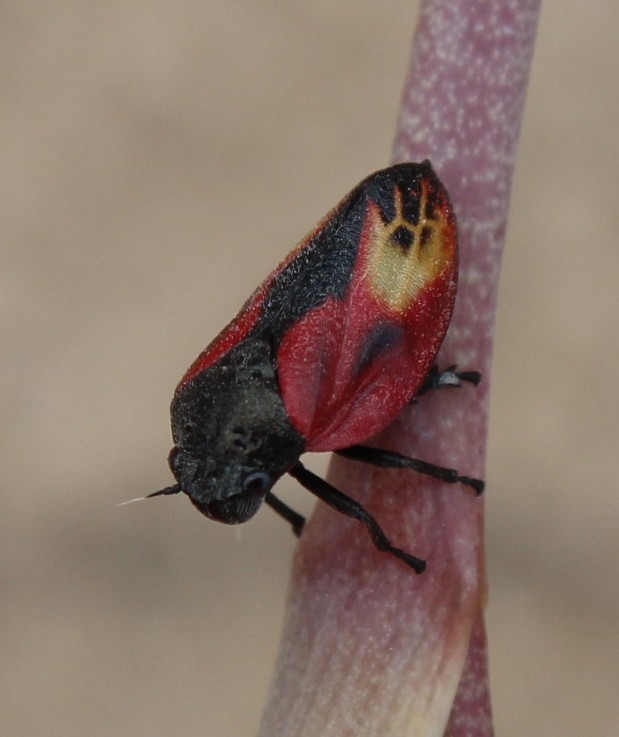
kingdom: Animalia
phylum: Arthropoda
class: Insecta
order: Hemiptera
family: Cercopidae
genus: Rhinaulax
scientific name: Rhinaulax analis
